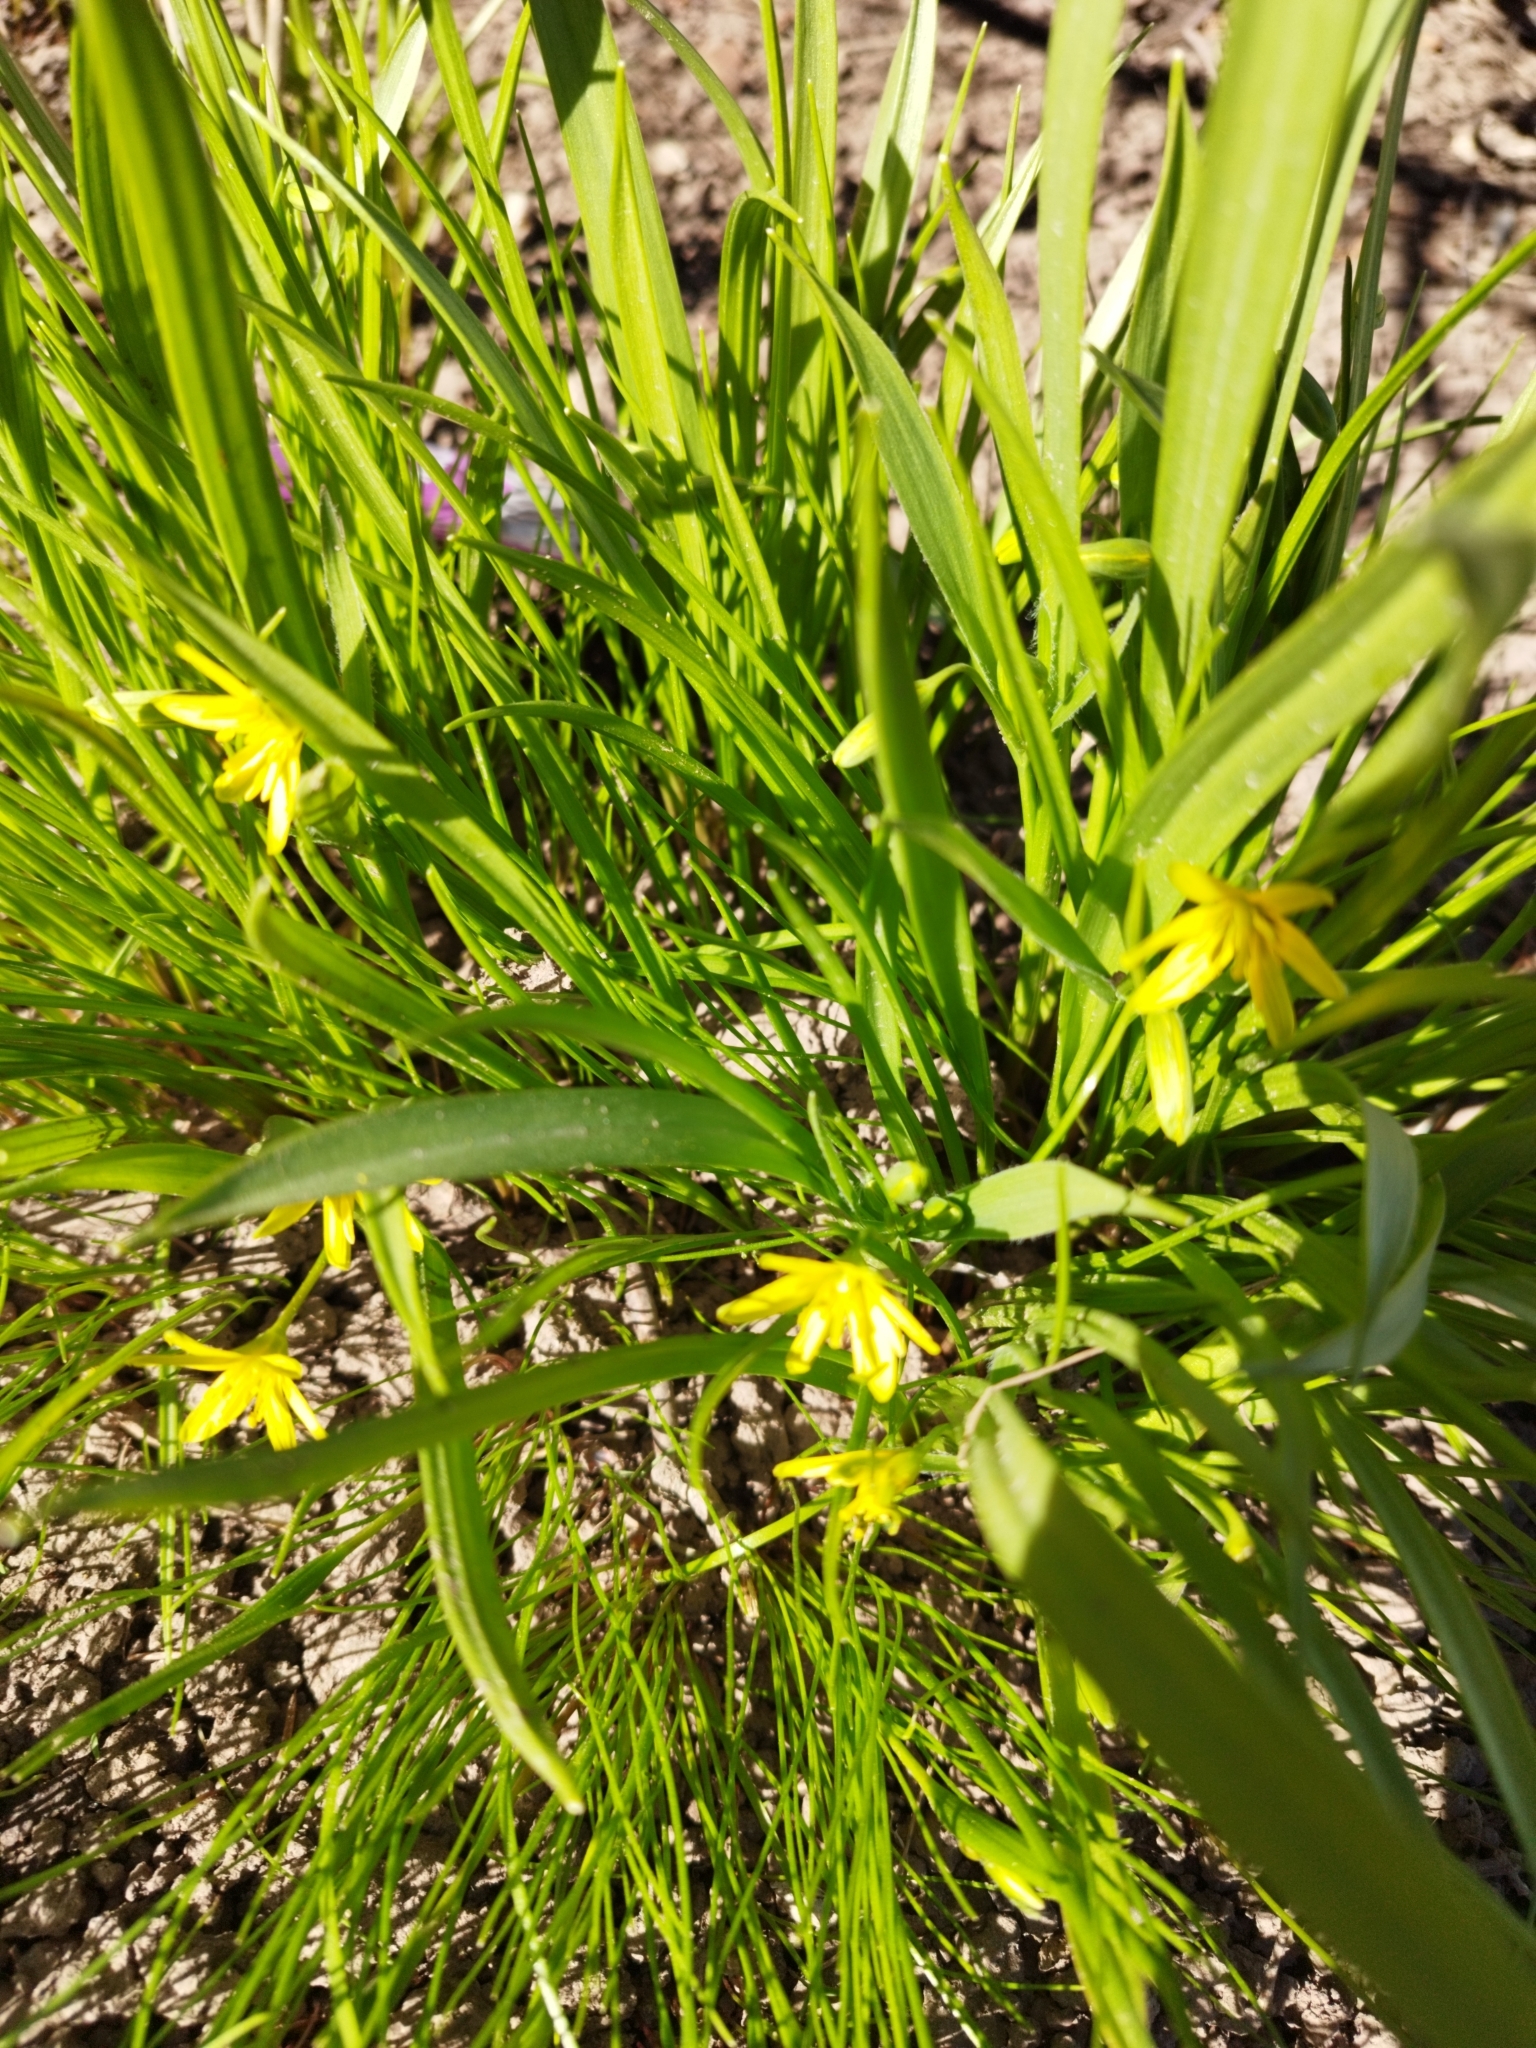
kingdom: Plantae
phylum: Tracheophyta
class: Liliopsida
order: Liliales
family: Liliaceae
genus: Gagea
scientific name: Gagea lutea
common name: Yellow star-of-bethlehem
